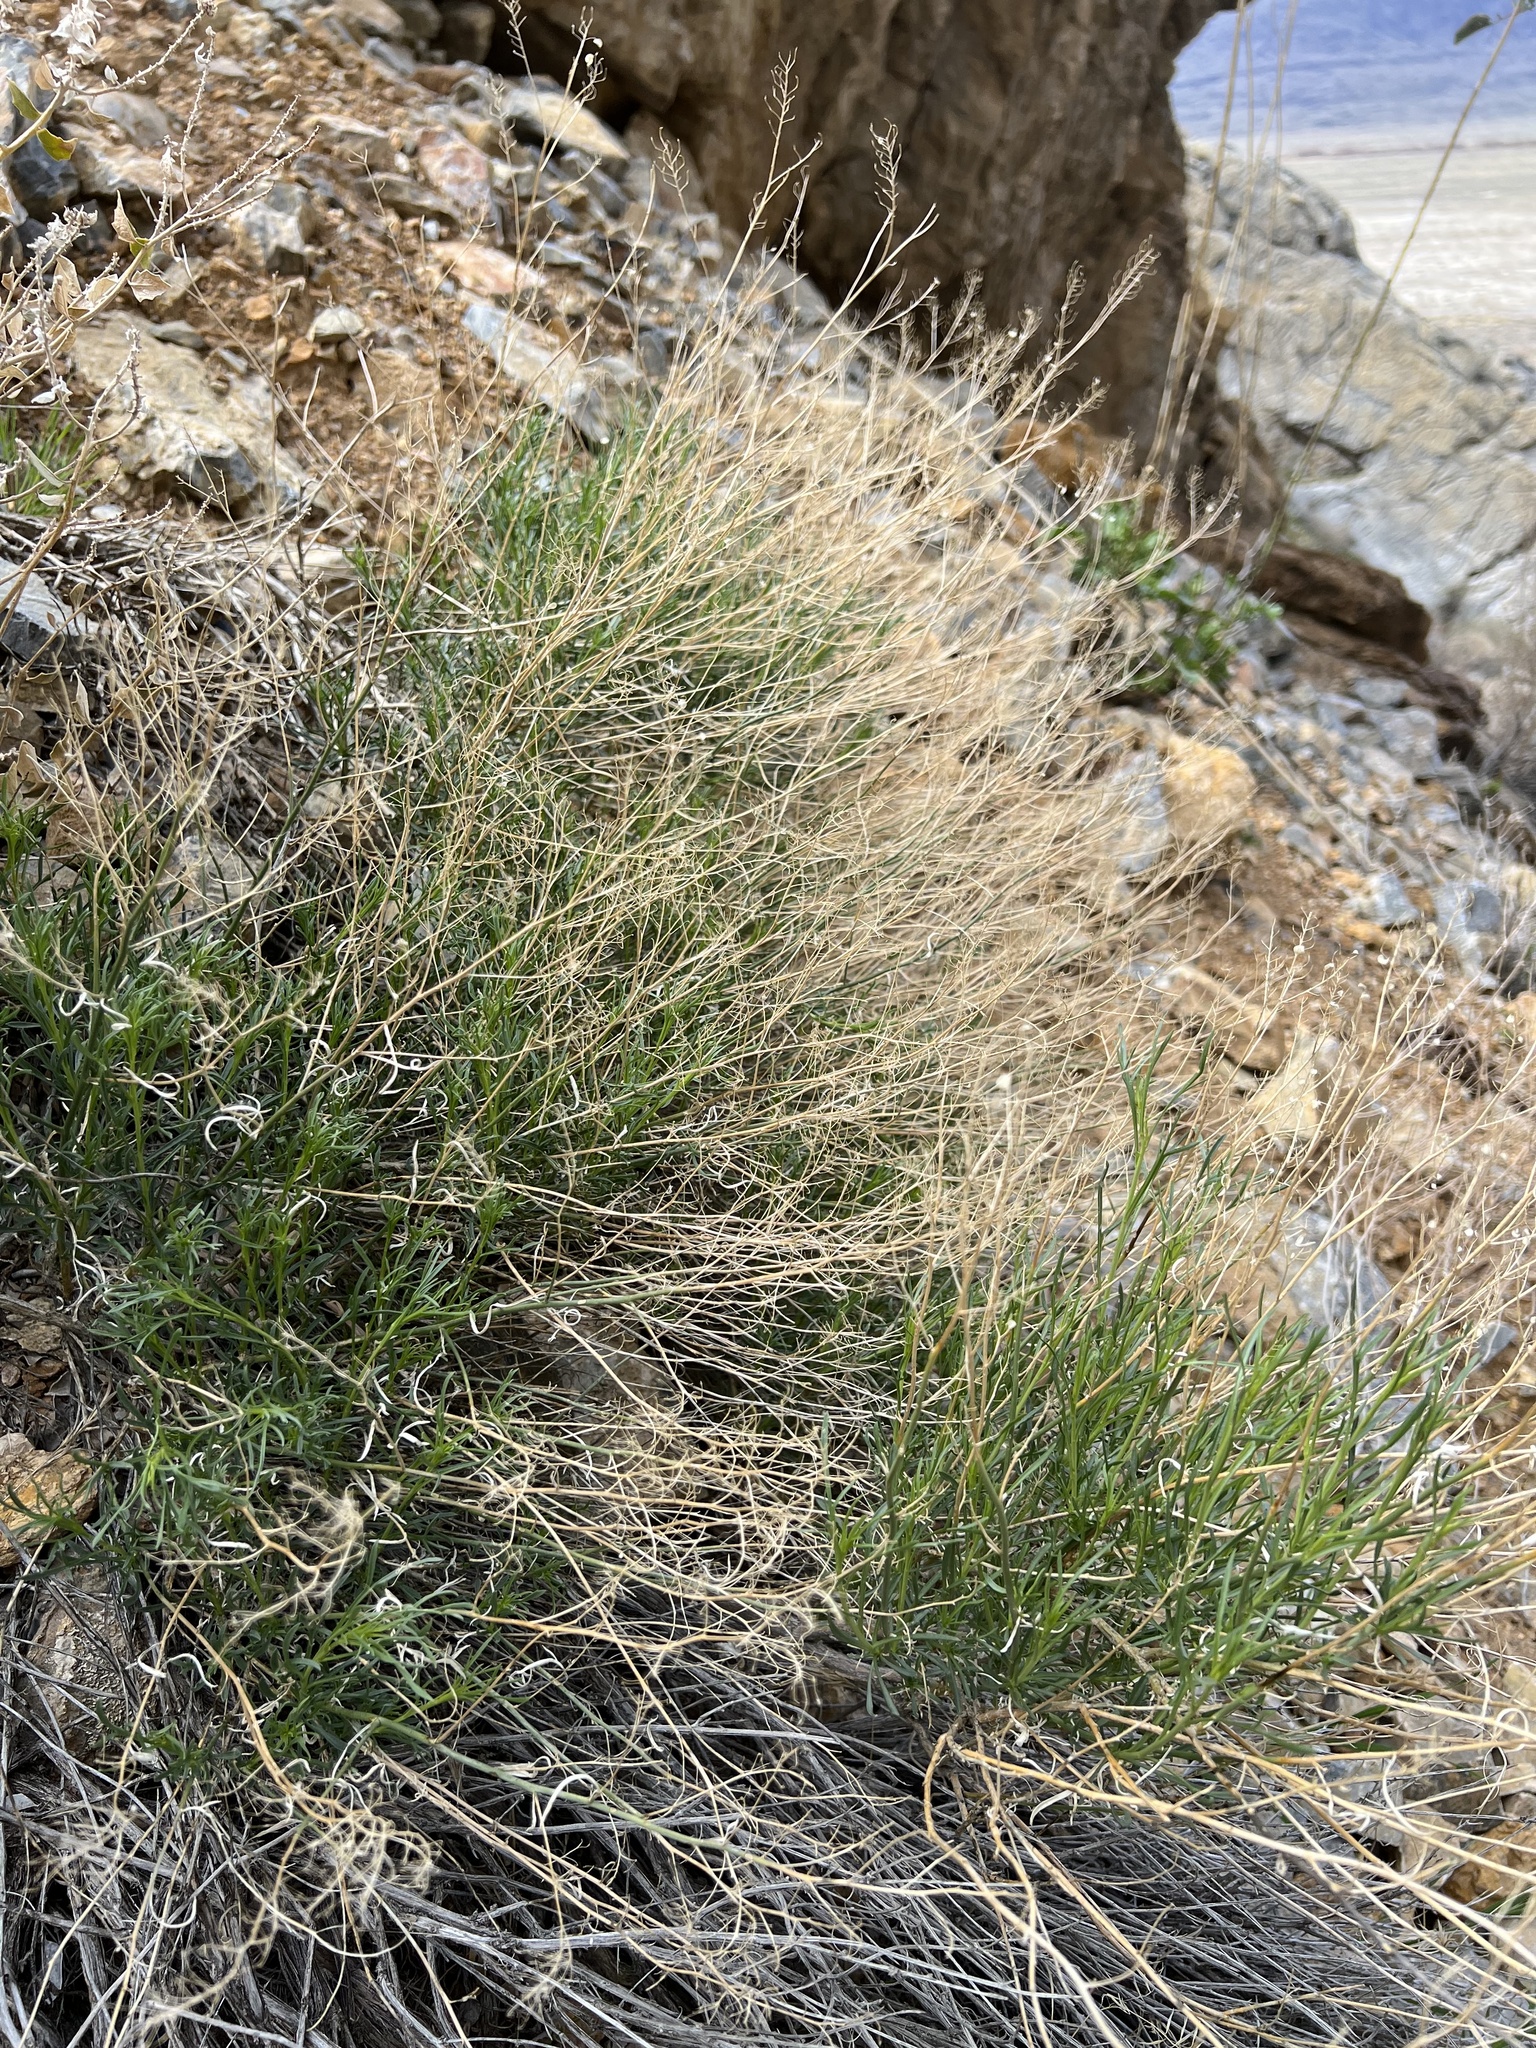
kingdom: Plantae
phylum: Tracheophyta
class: Magnoliopsida
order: Brassicales
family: Brassicaceae
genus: Lepidium
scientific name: Lepidium fremontii
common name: Fremont's pepperwort
